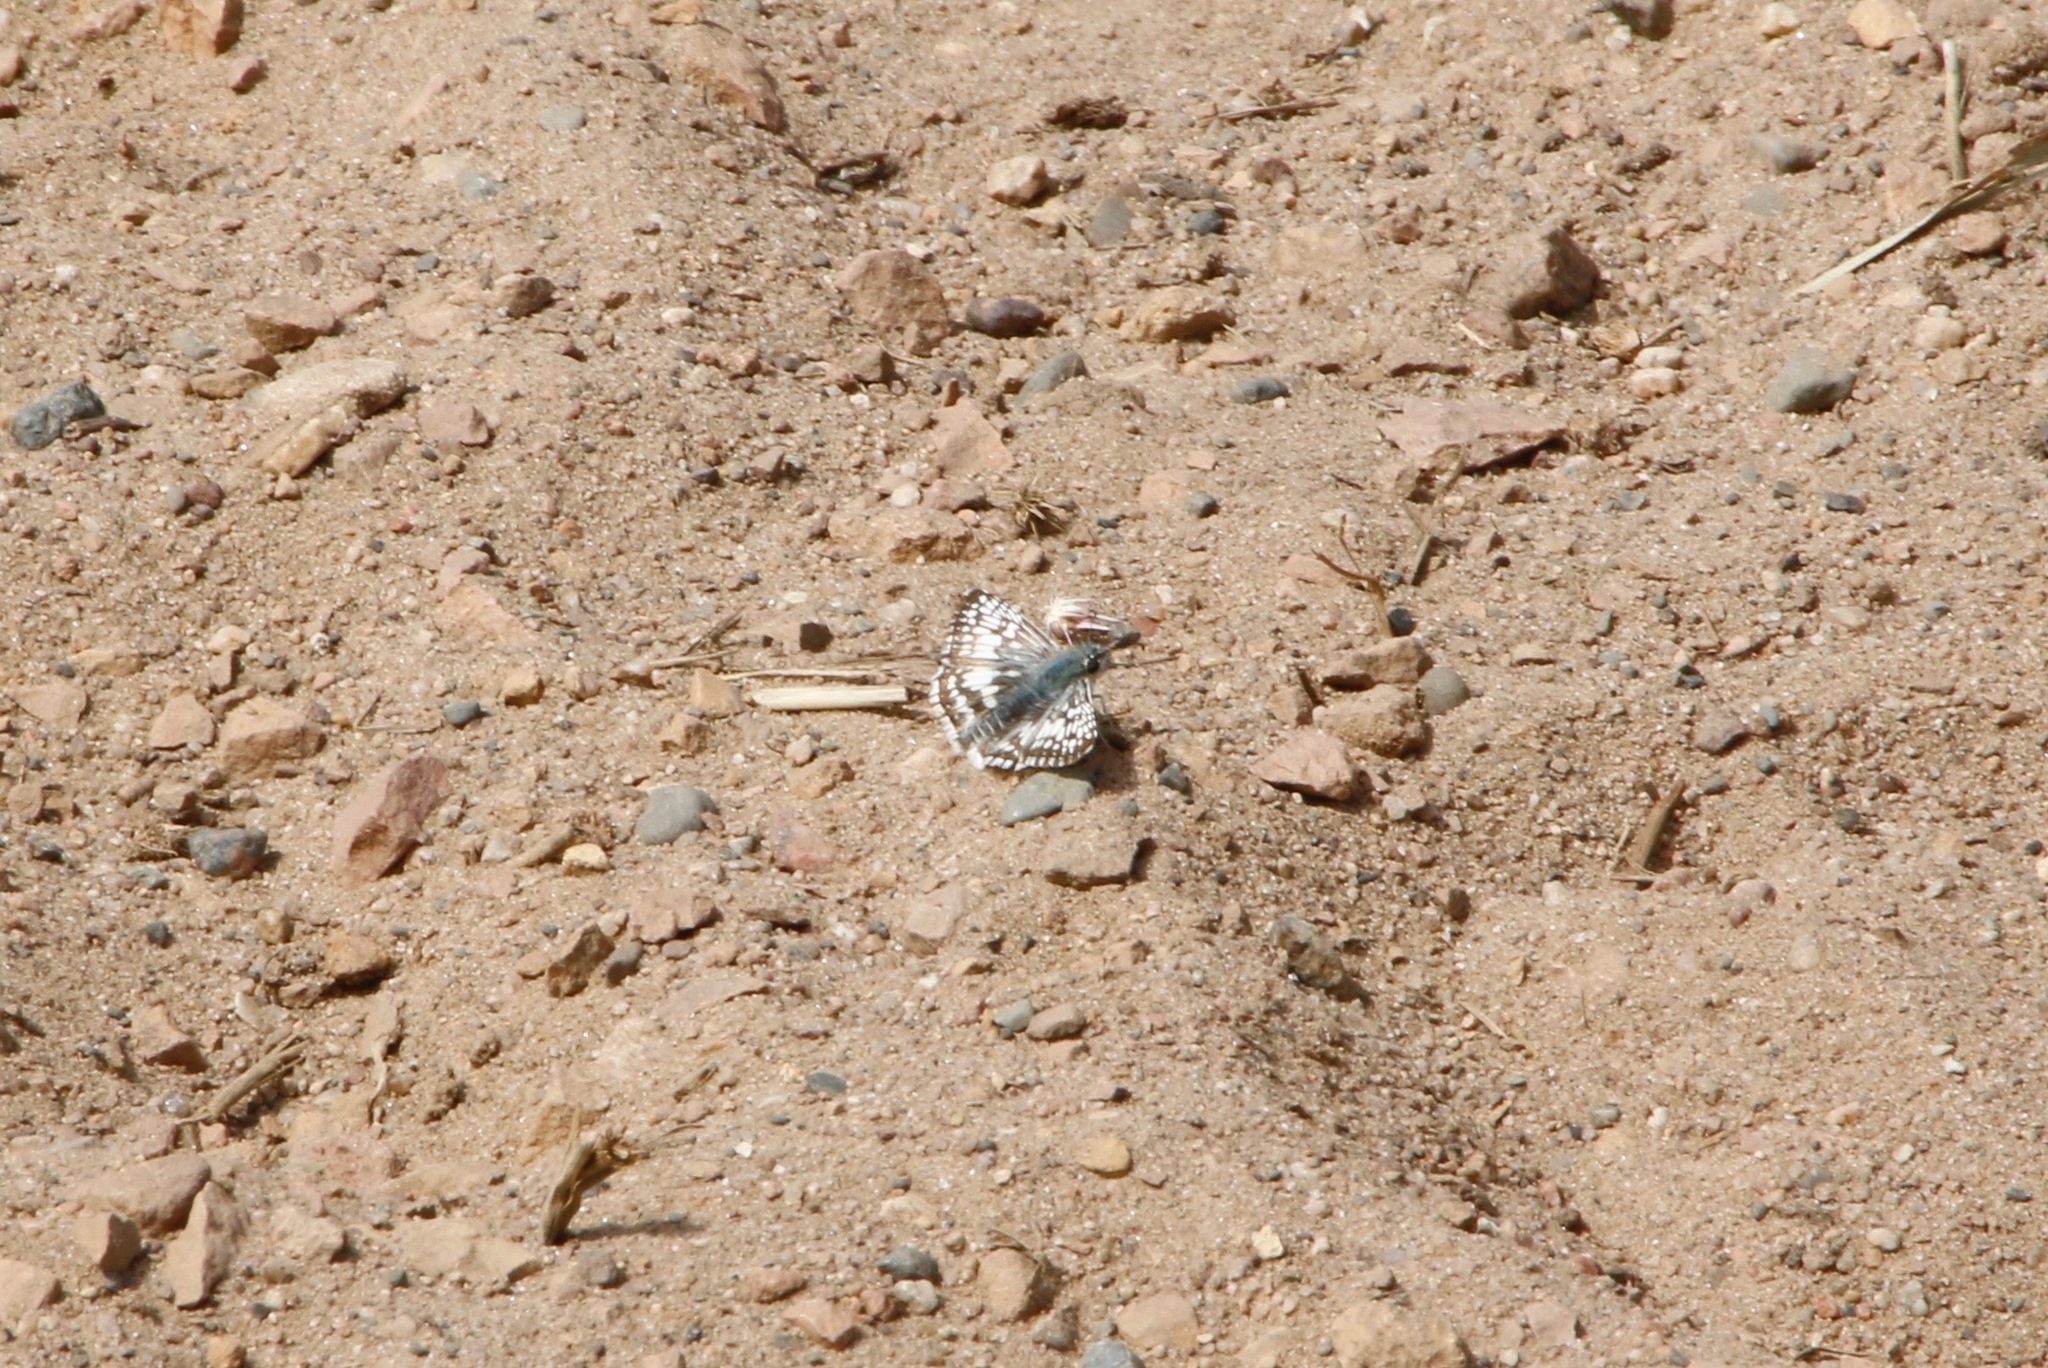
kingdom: Animalia
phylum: Arthropoda
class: Insecta
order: Lepidoptera
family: Hesperiidae
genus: Burnsius
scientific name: Burnsius communis
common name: Common checkered-skipper
